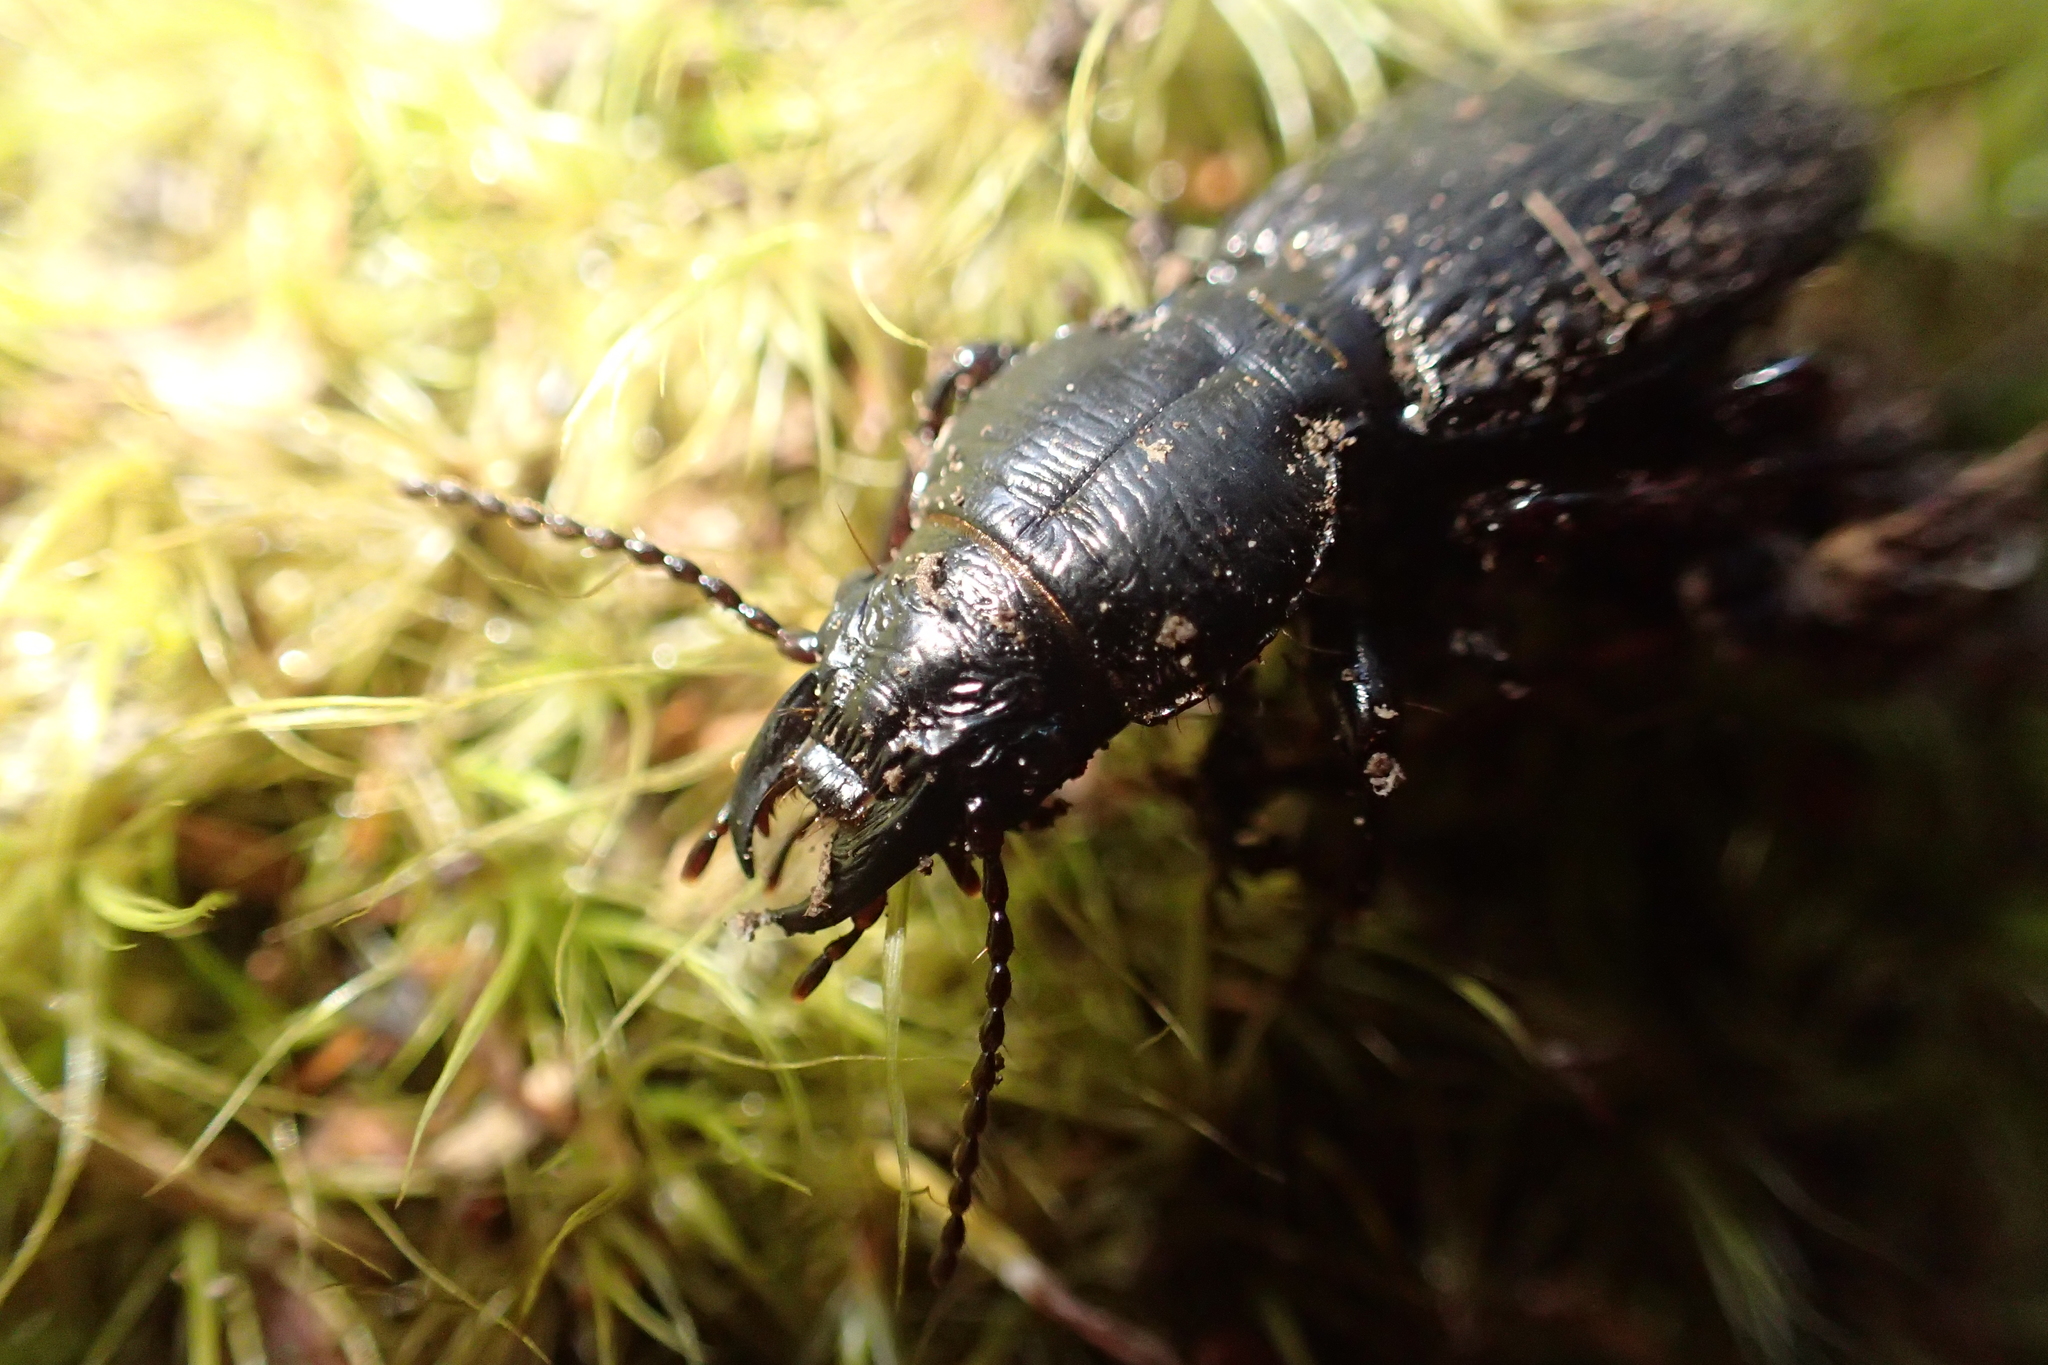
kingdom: Animalia
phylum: Arthropoda
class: Insecta
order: Coleoptera
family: Carabidae
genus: Mecodema
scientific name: Mecodema crenicolle
